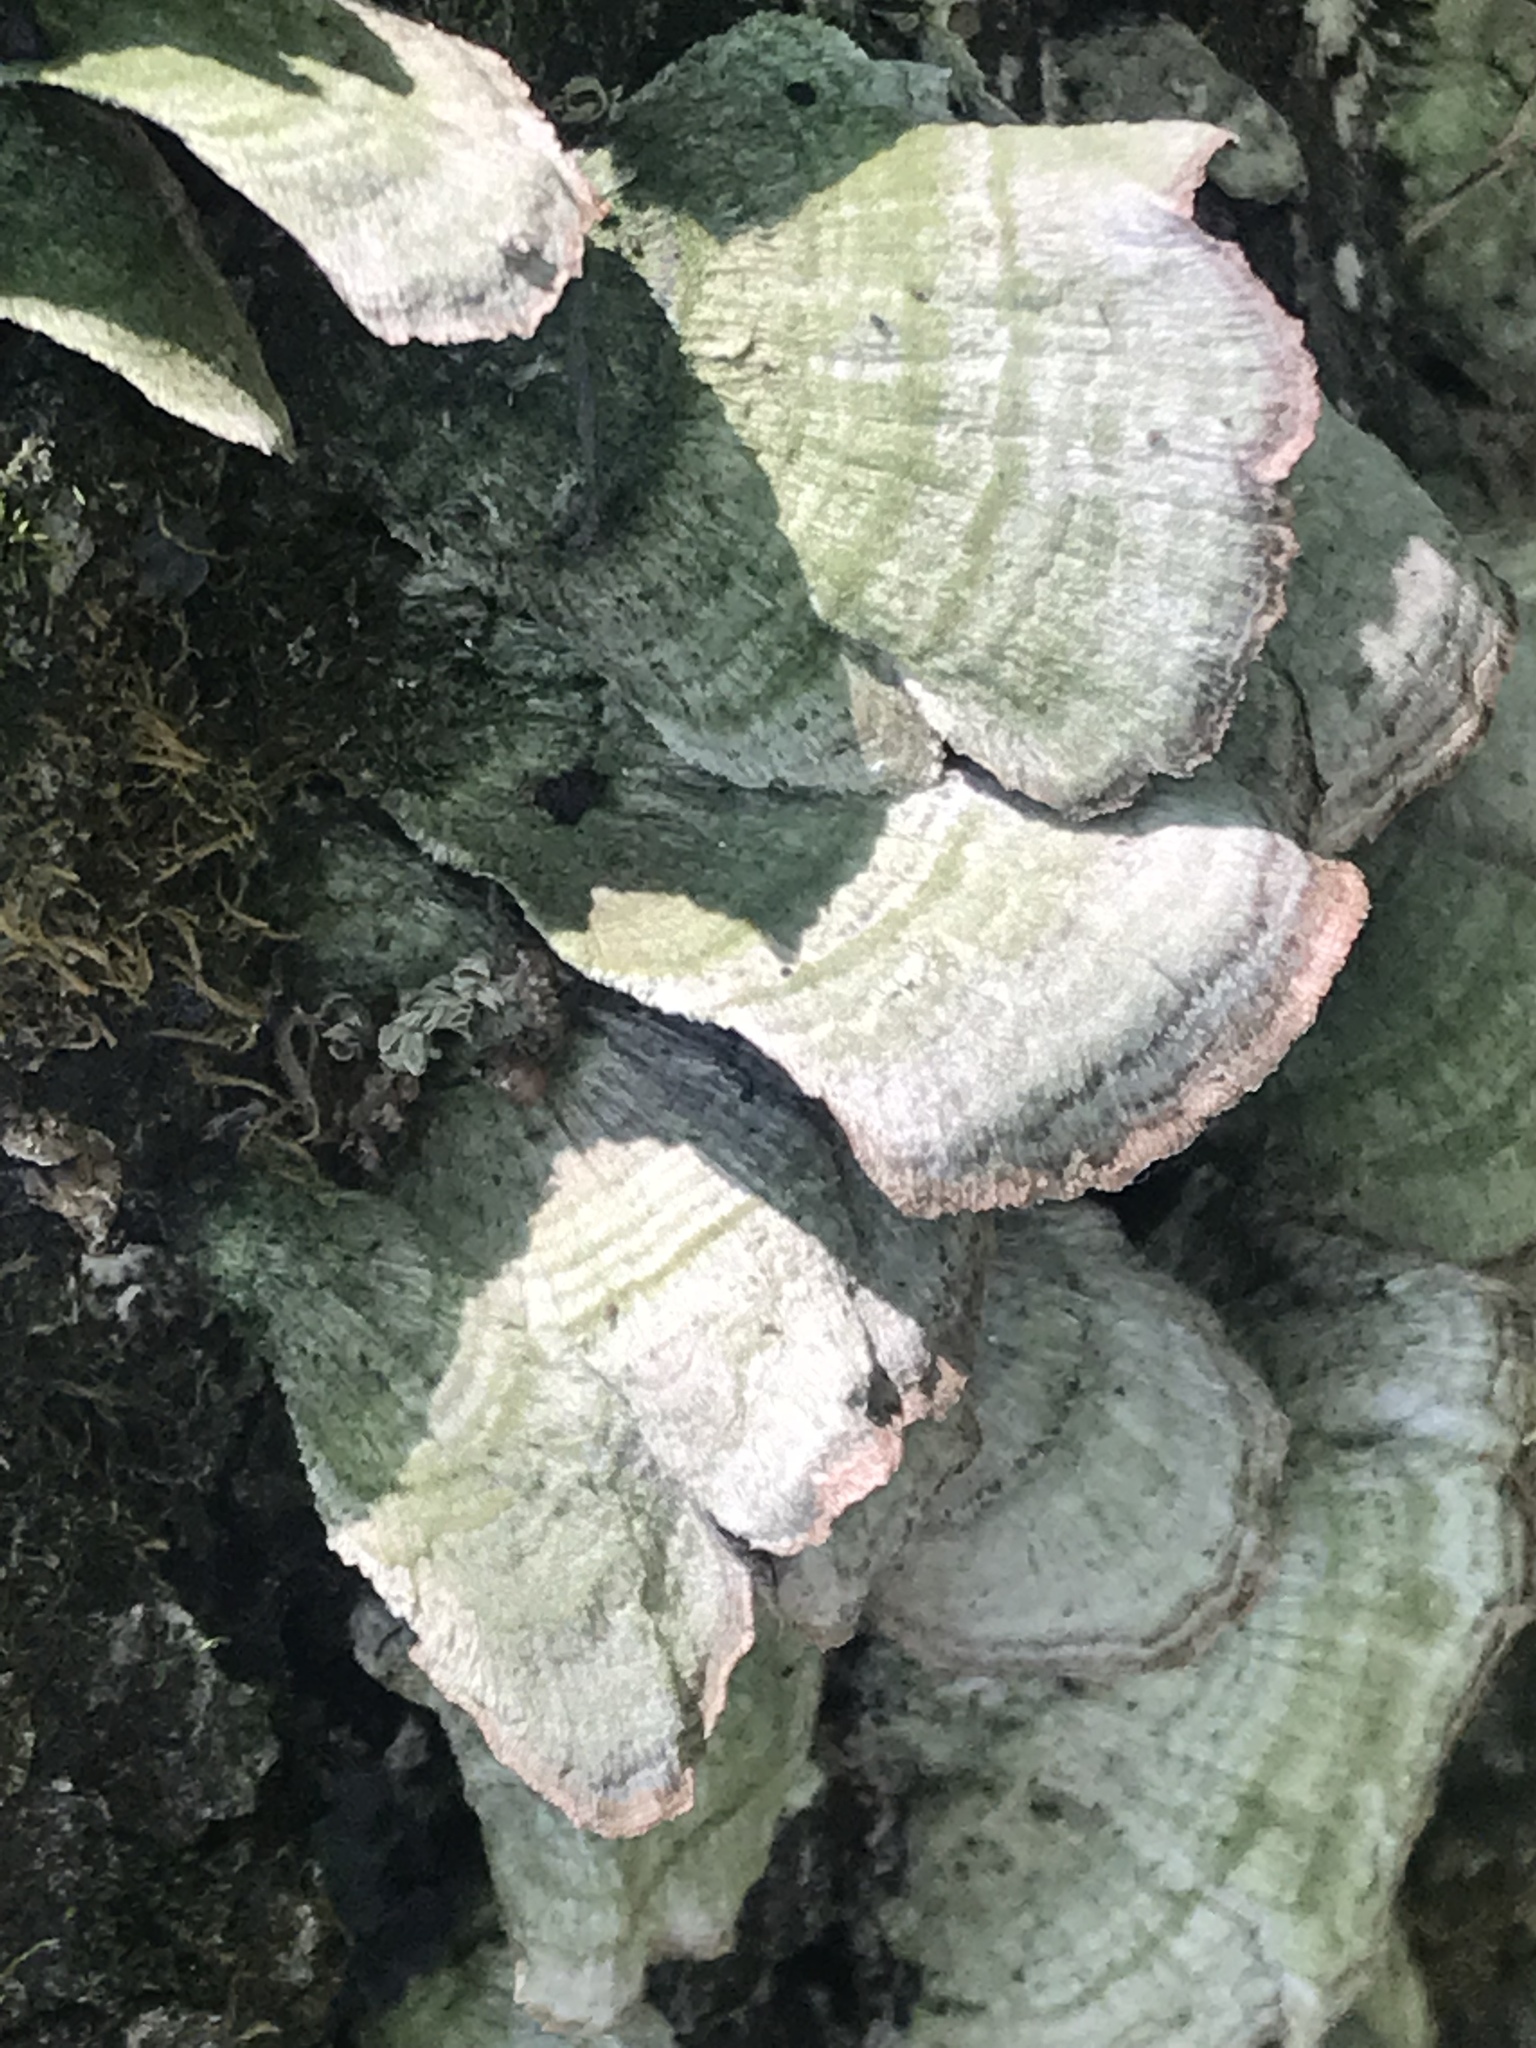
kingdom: Fungi
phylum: Basidiomycota
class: Agaricomycetes
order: Polyporales
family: Polyporaceae
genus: Trametes
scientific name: Trametes versicolor
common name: Turkeytail
